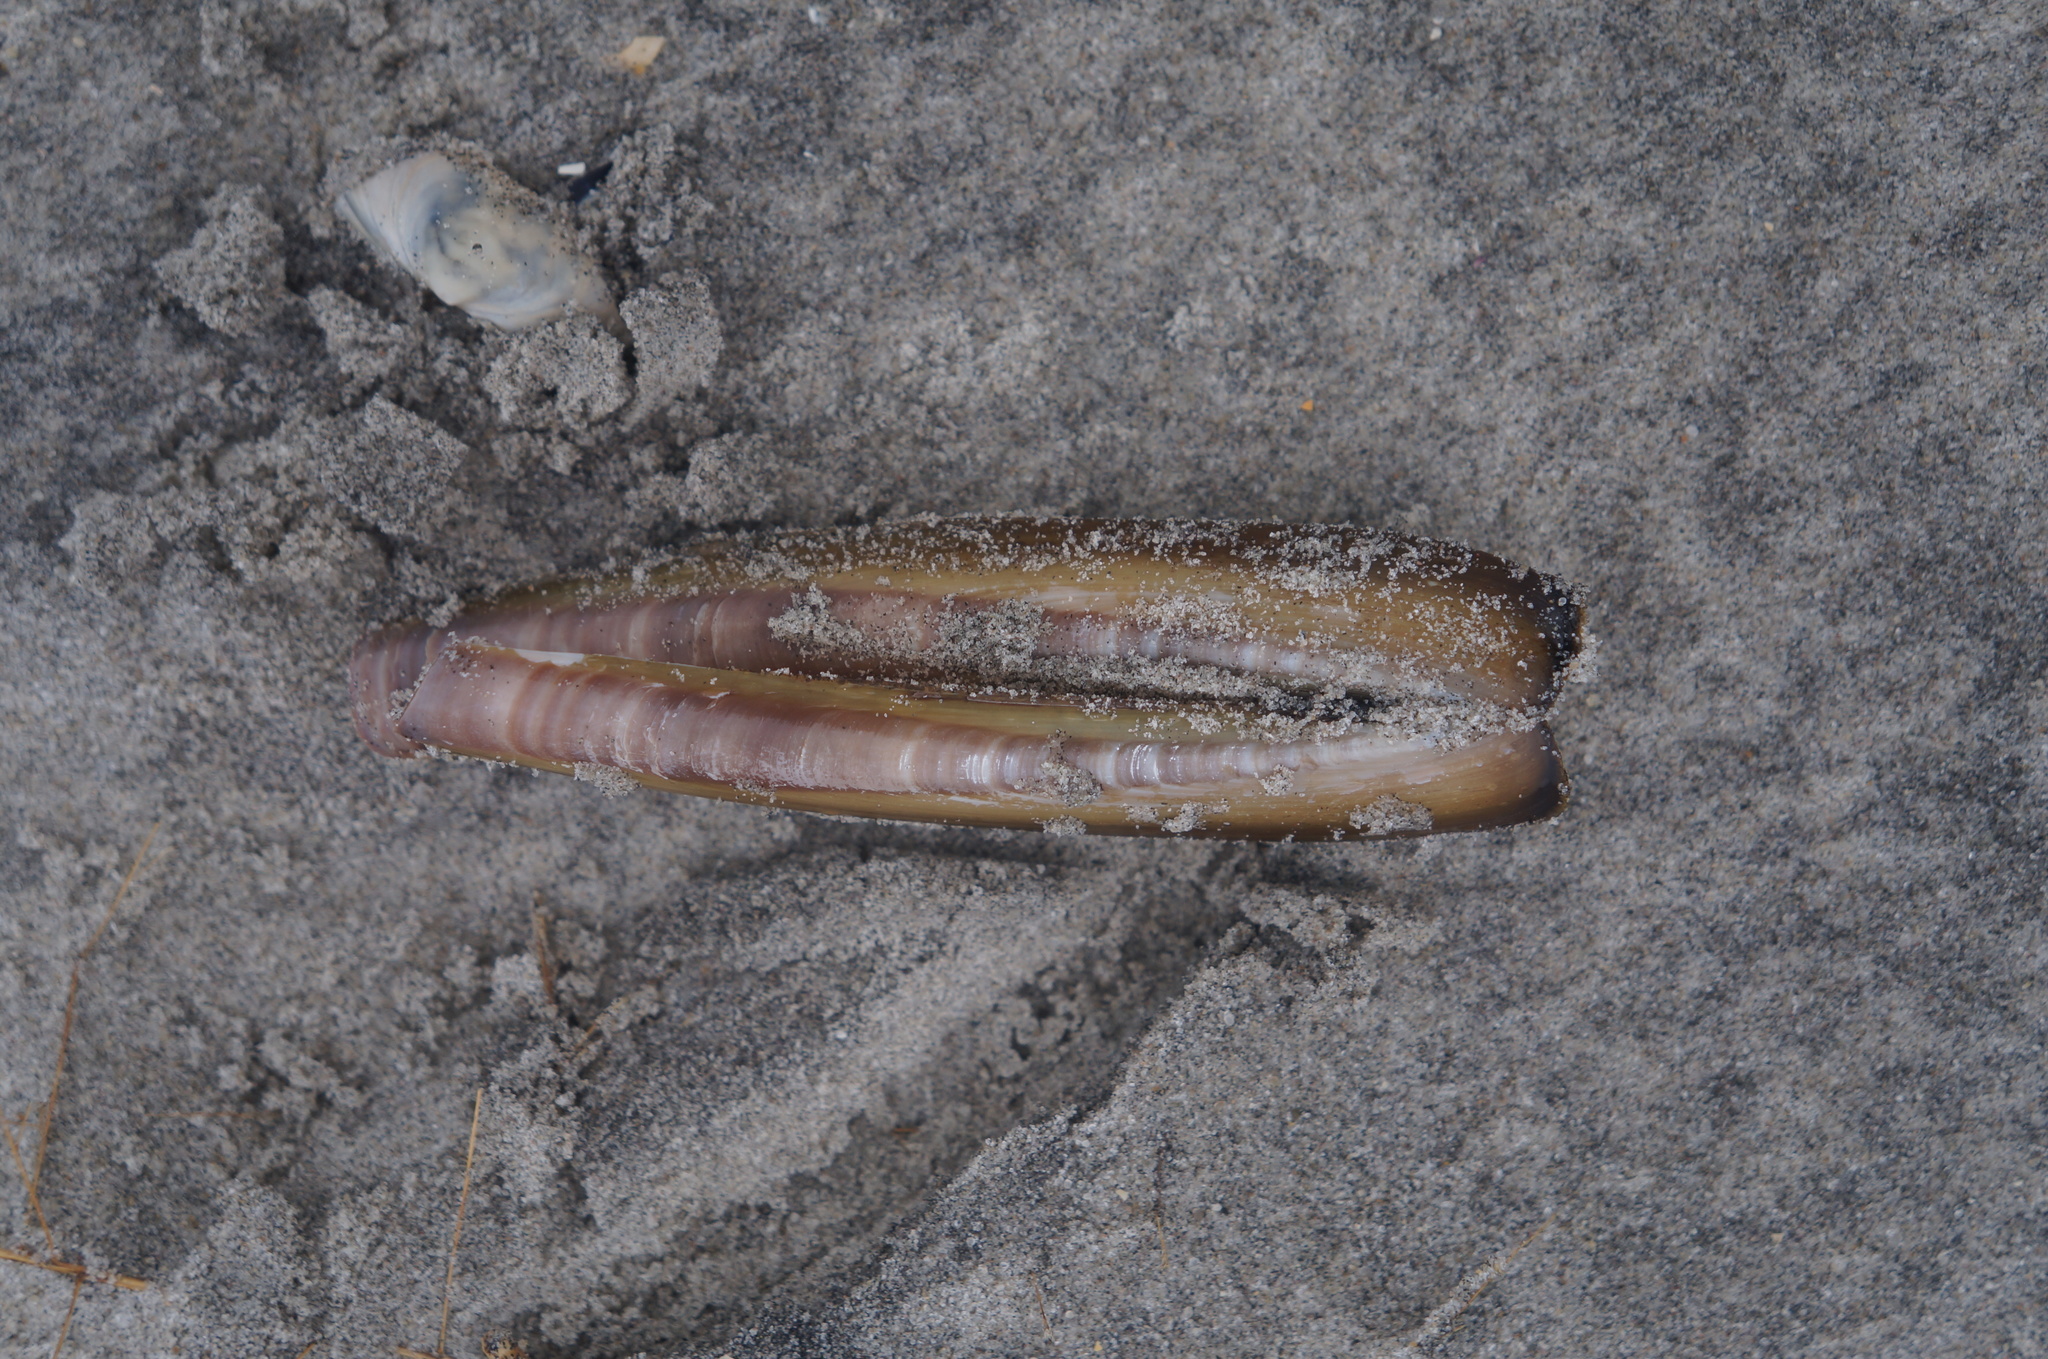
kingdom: Animalia
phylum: Mollusca
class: Bivalvia
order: Adapedonta
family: Pharidae
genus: Ensis
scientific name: Ensis leei
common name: American jack knife clam
